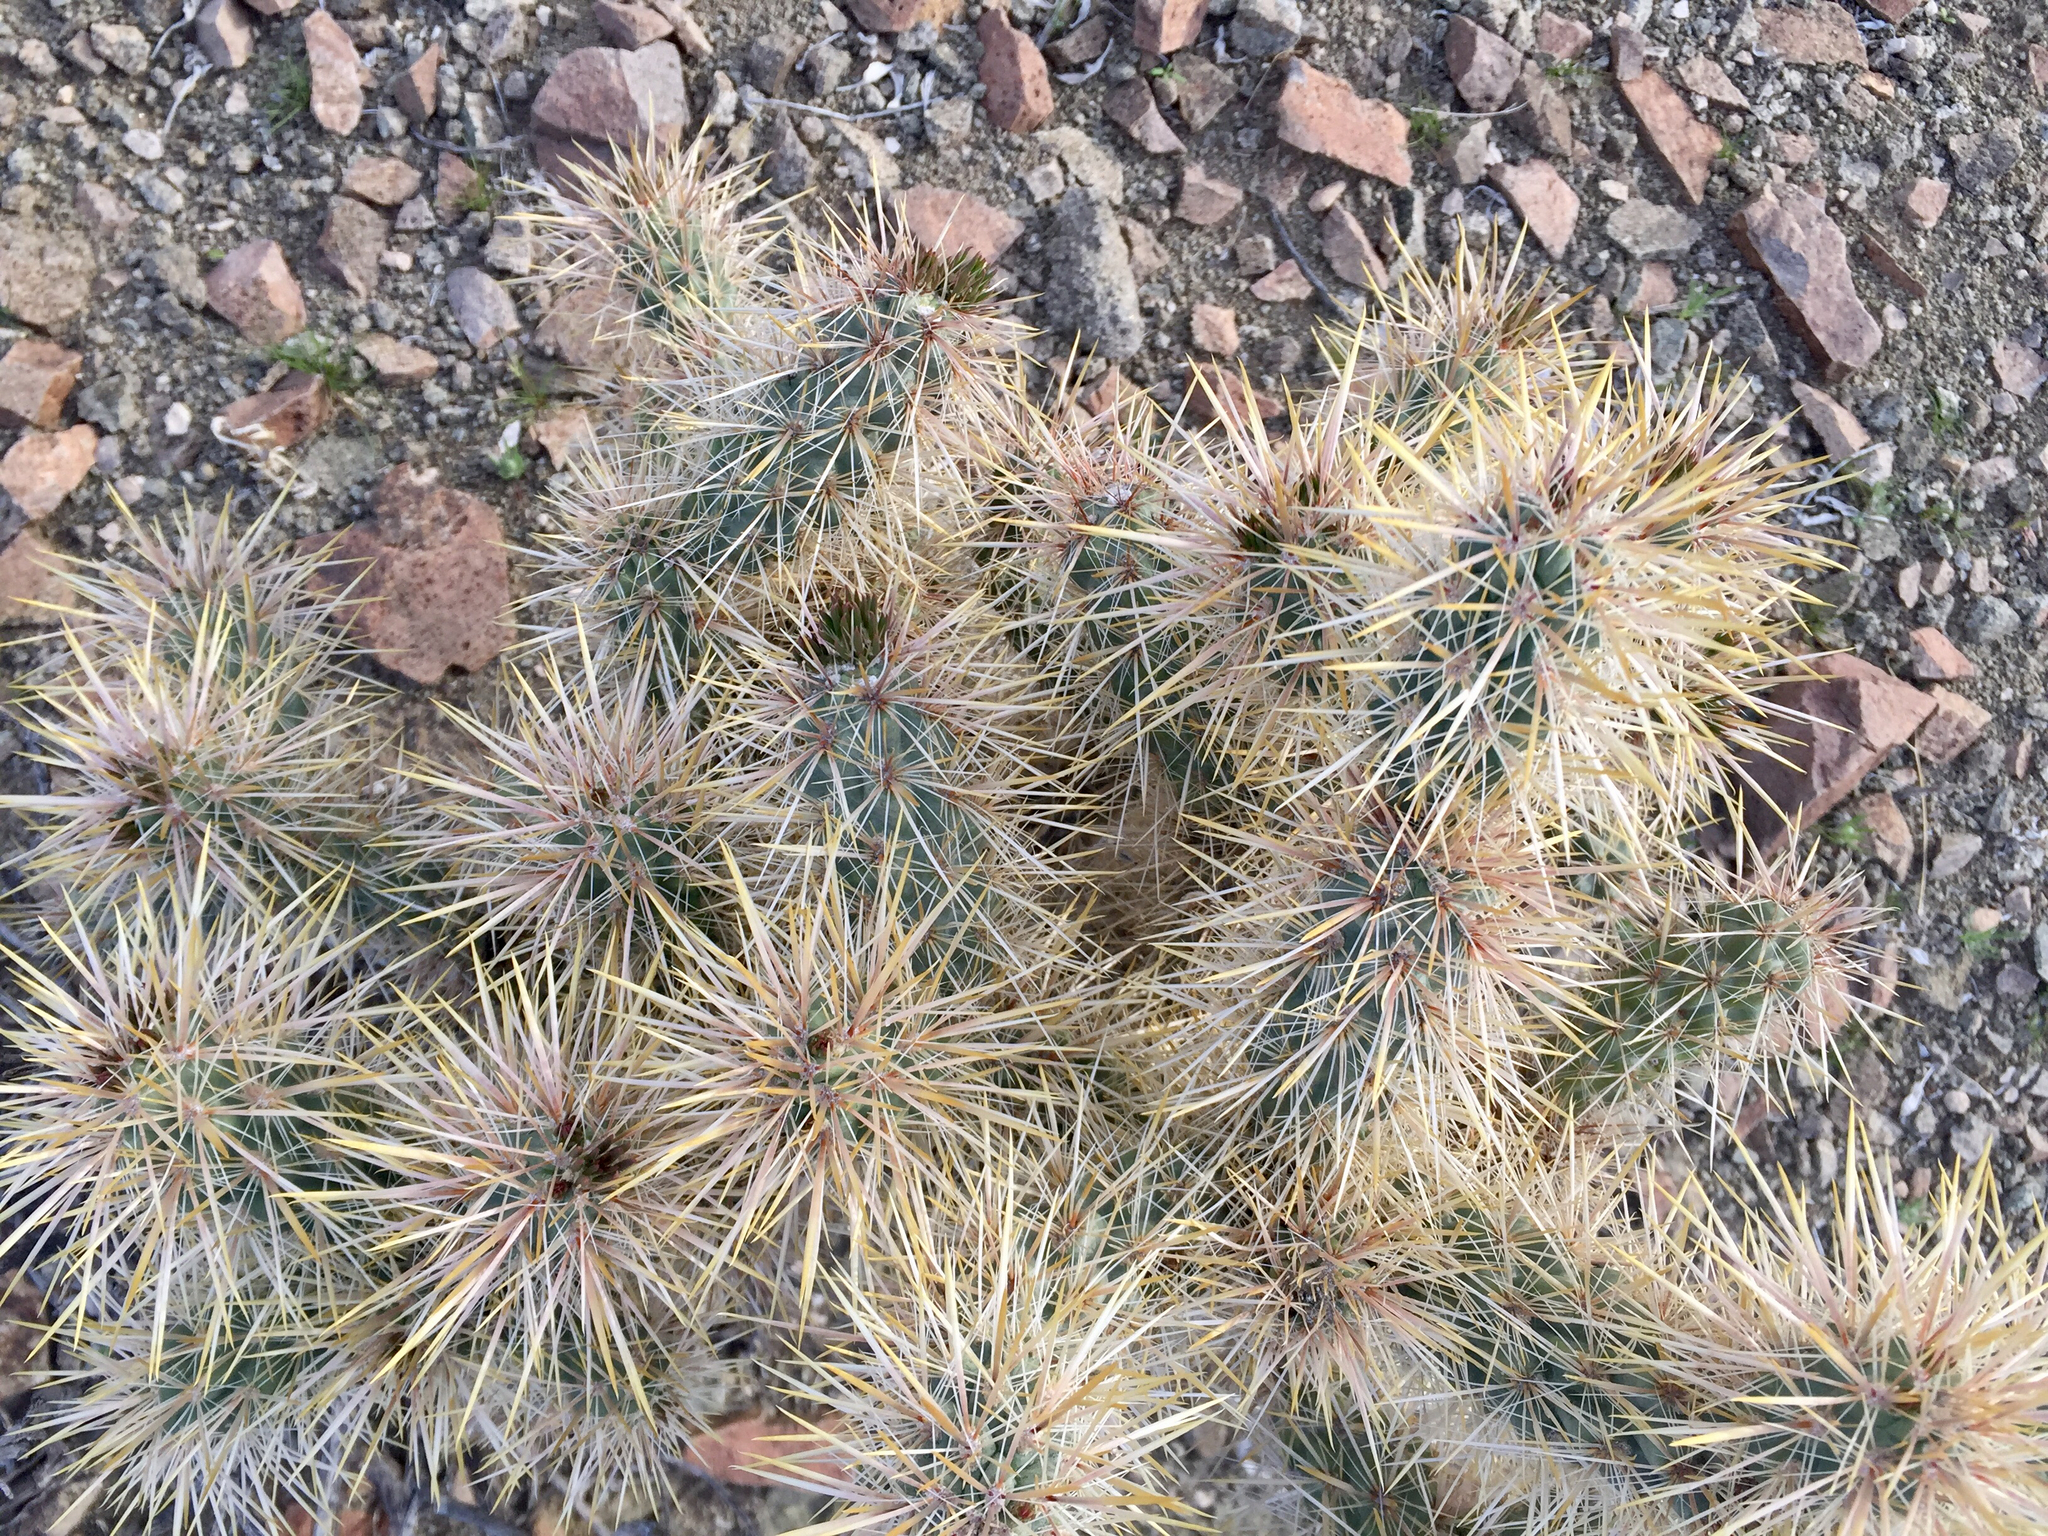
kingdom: Plantae
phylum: Tracheophyta
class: Magnoliopsida
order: Caryophyllales
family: Cactaceae
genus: Cylindropuntia
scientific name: Cylindropuntia echinocarpa
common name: Ground cholla
